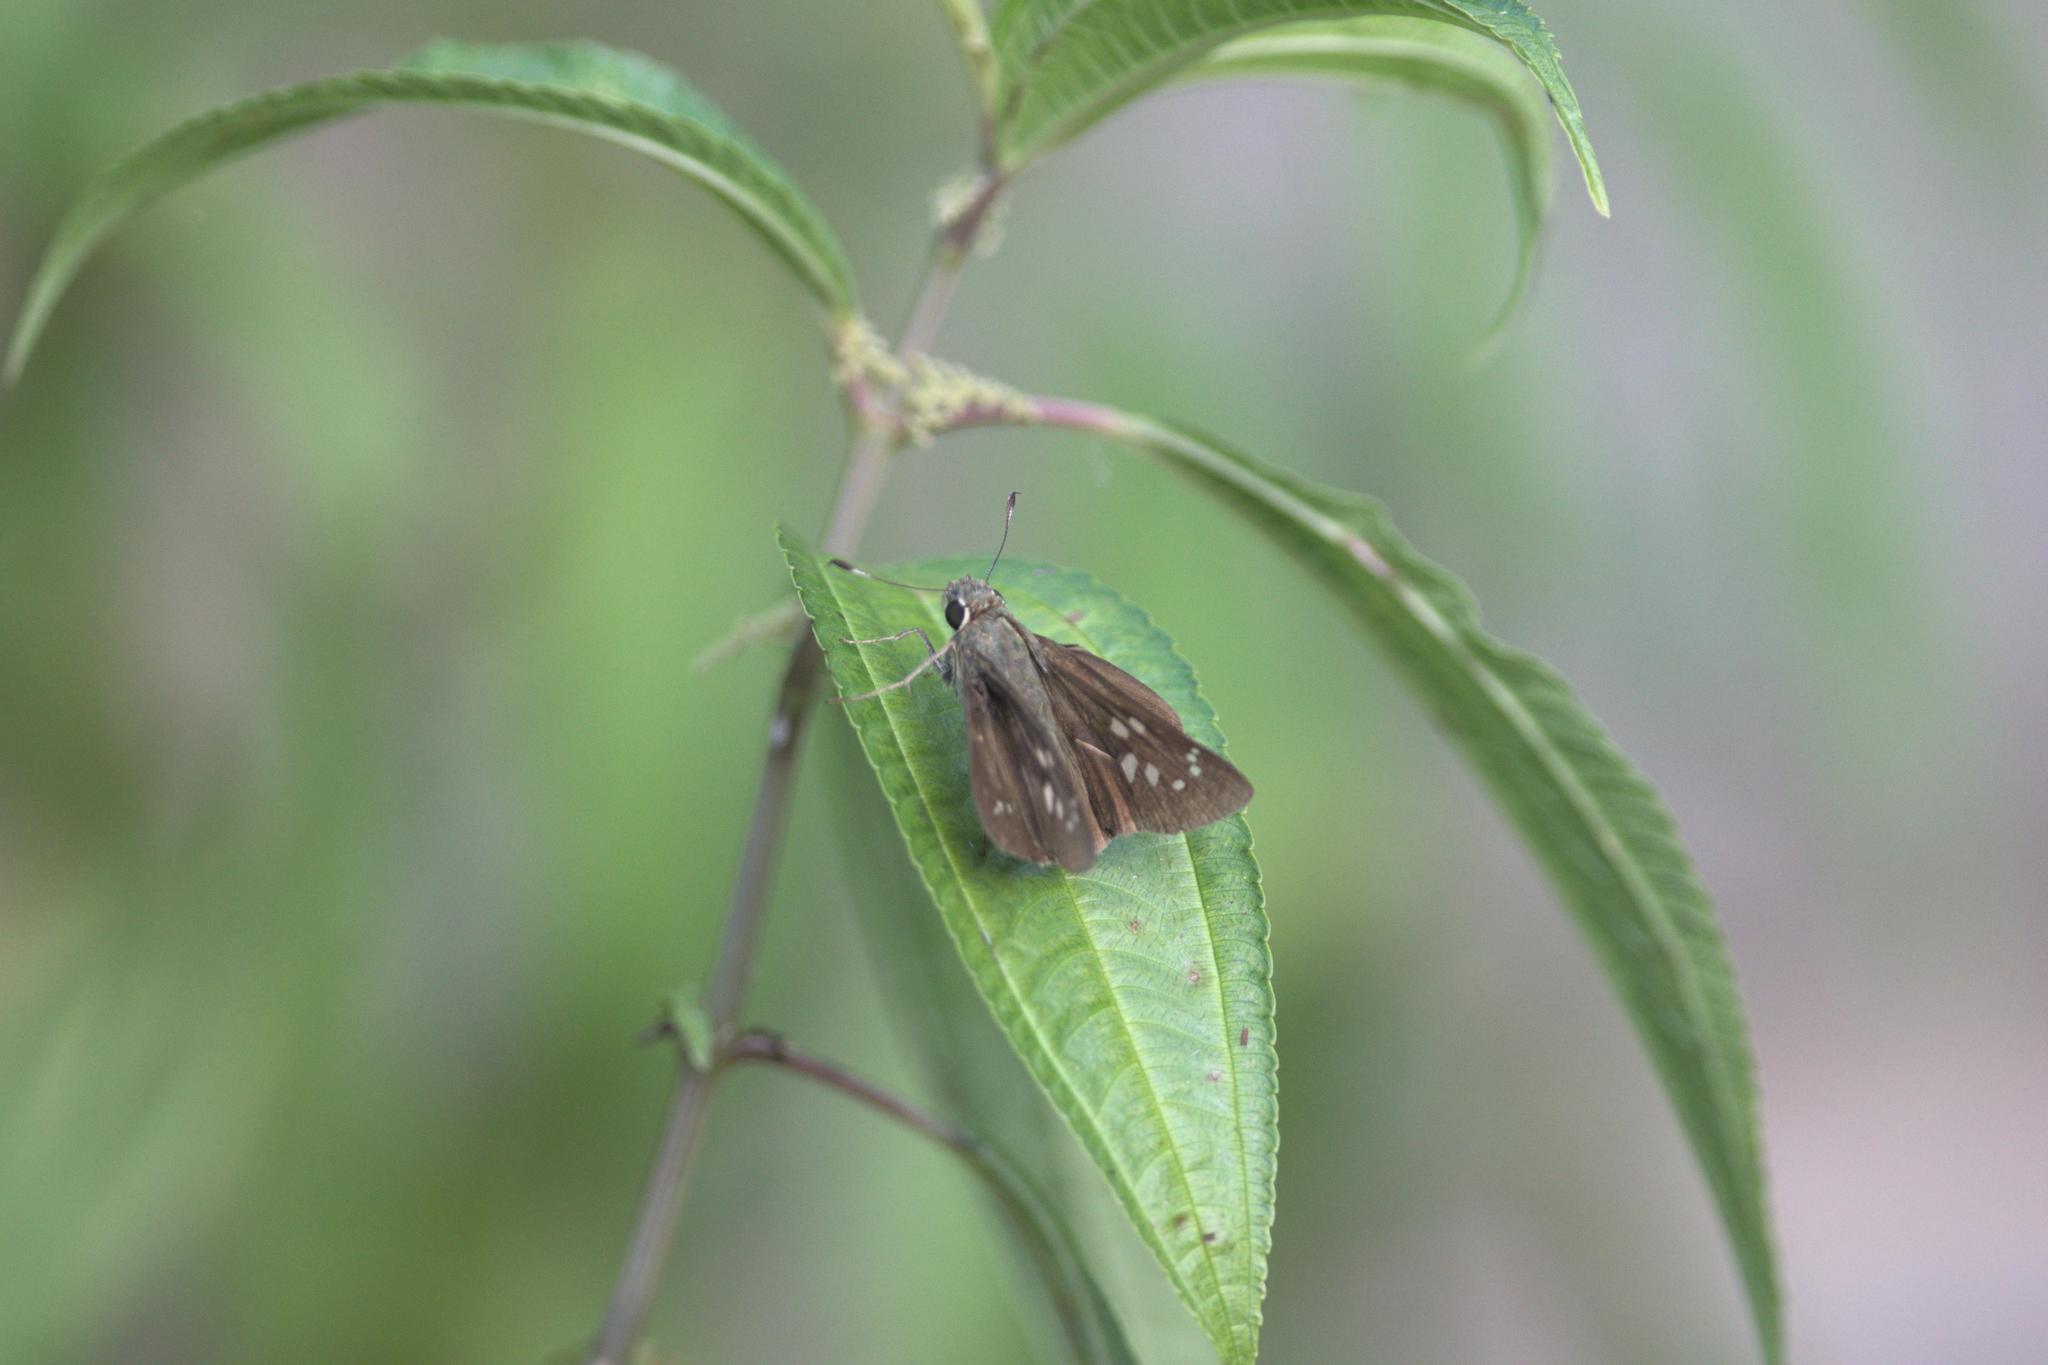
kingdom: Animalia
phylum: Arthropoda
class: Insecta
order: Lepidoptera
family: Hesperiidae
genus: Pelopidas
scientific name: Pelopidas sinensis
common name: Chinese branded swift
